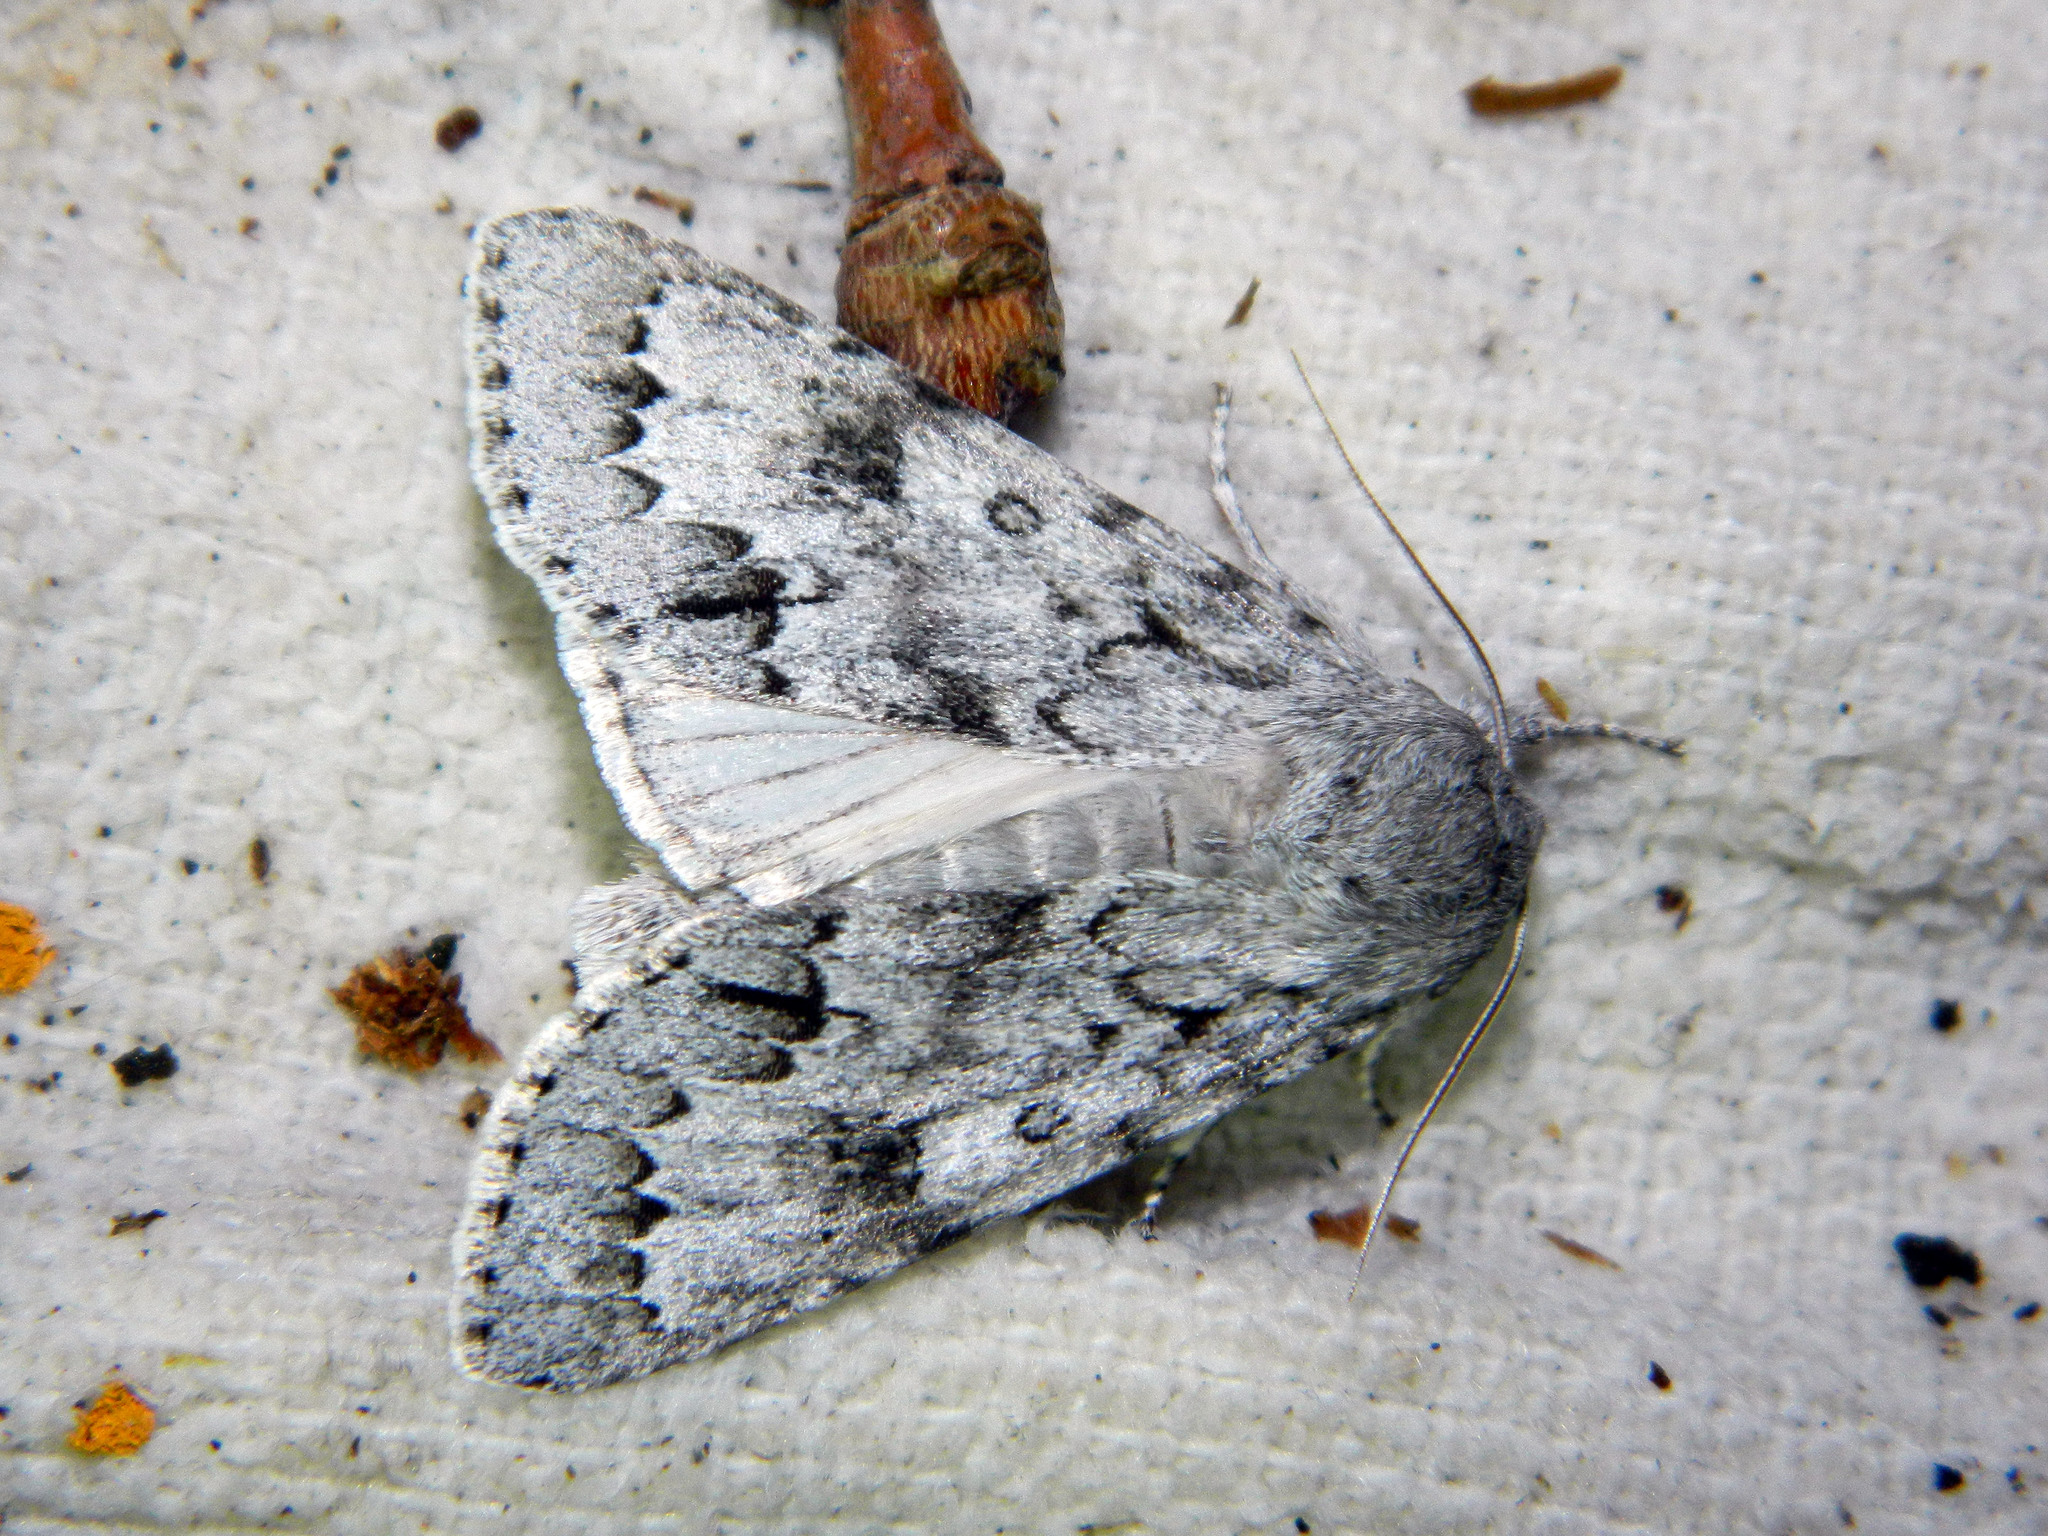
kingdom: Animalia
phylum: Arthropoda
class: Insecta
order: Lepidoptera
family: Noctuidae
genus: Acronicta
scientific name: Acronicta insita
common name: Large gray dagger
